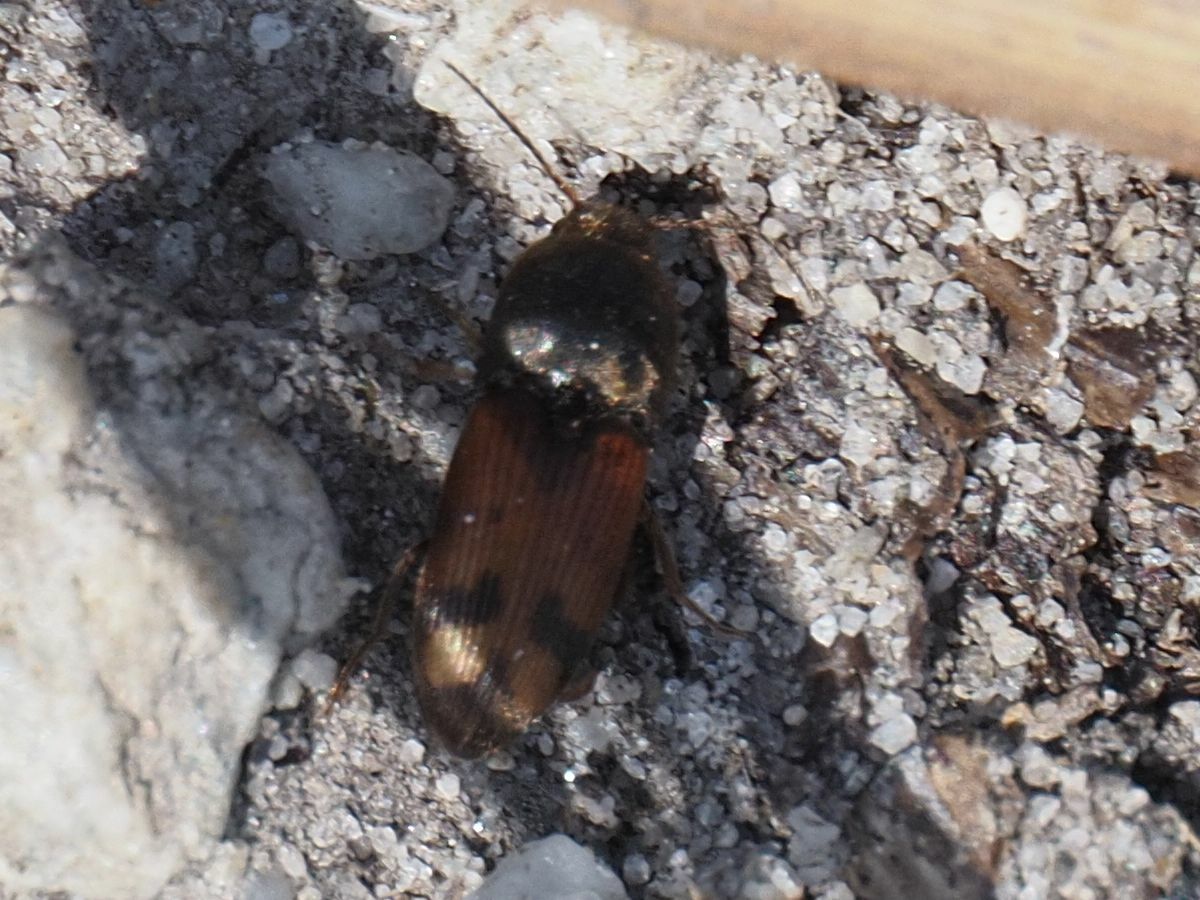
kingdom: Animalia
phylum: Arthropoda
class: Insecta
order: Coleoptera
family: Elateridae
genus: Drasterius
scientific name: Drasterius bimaculatus
